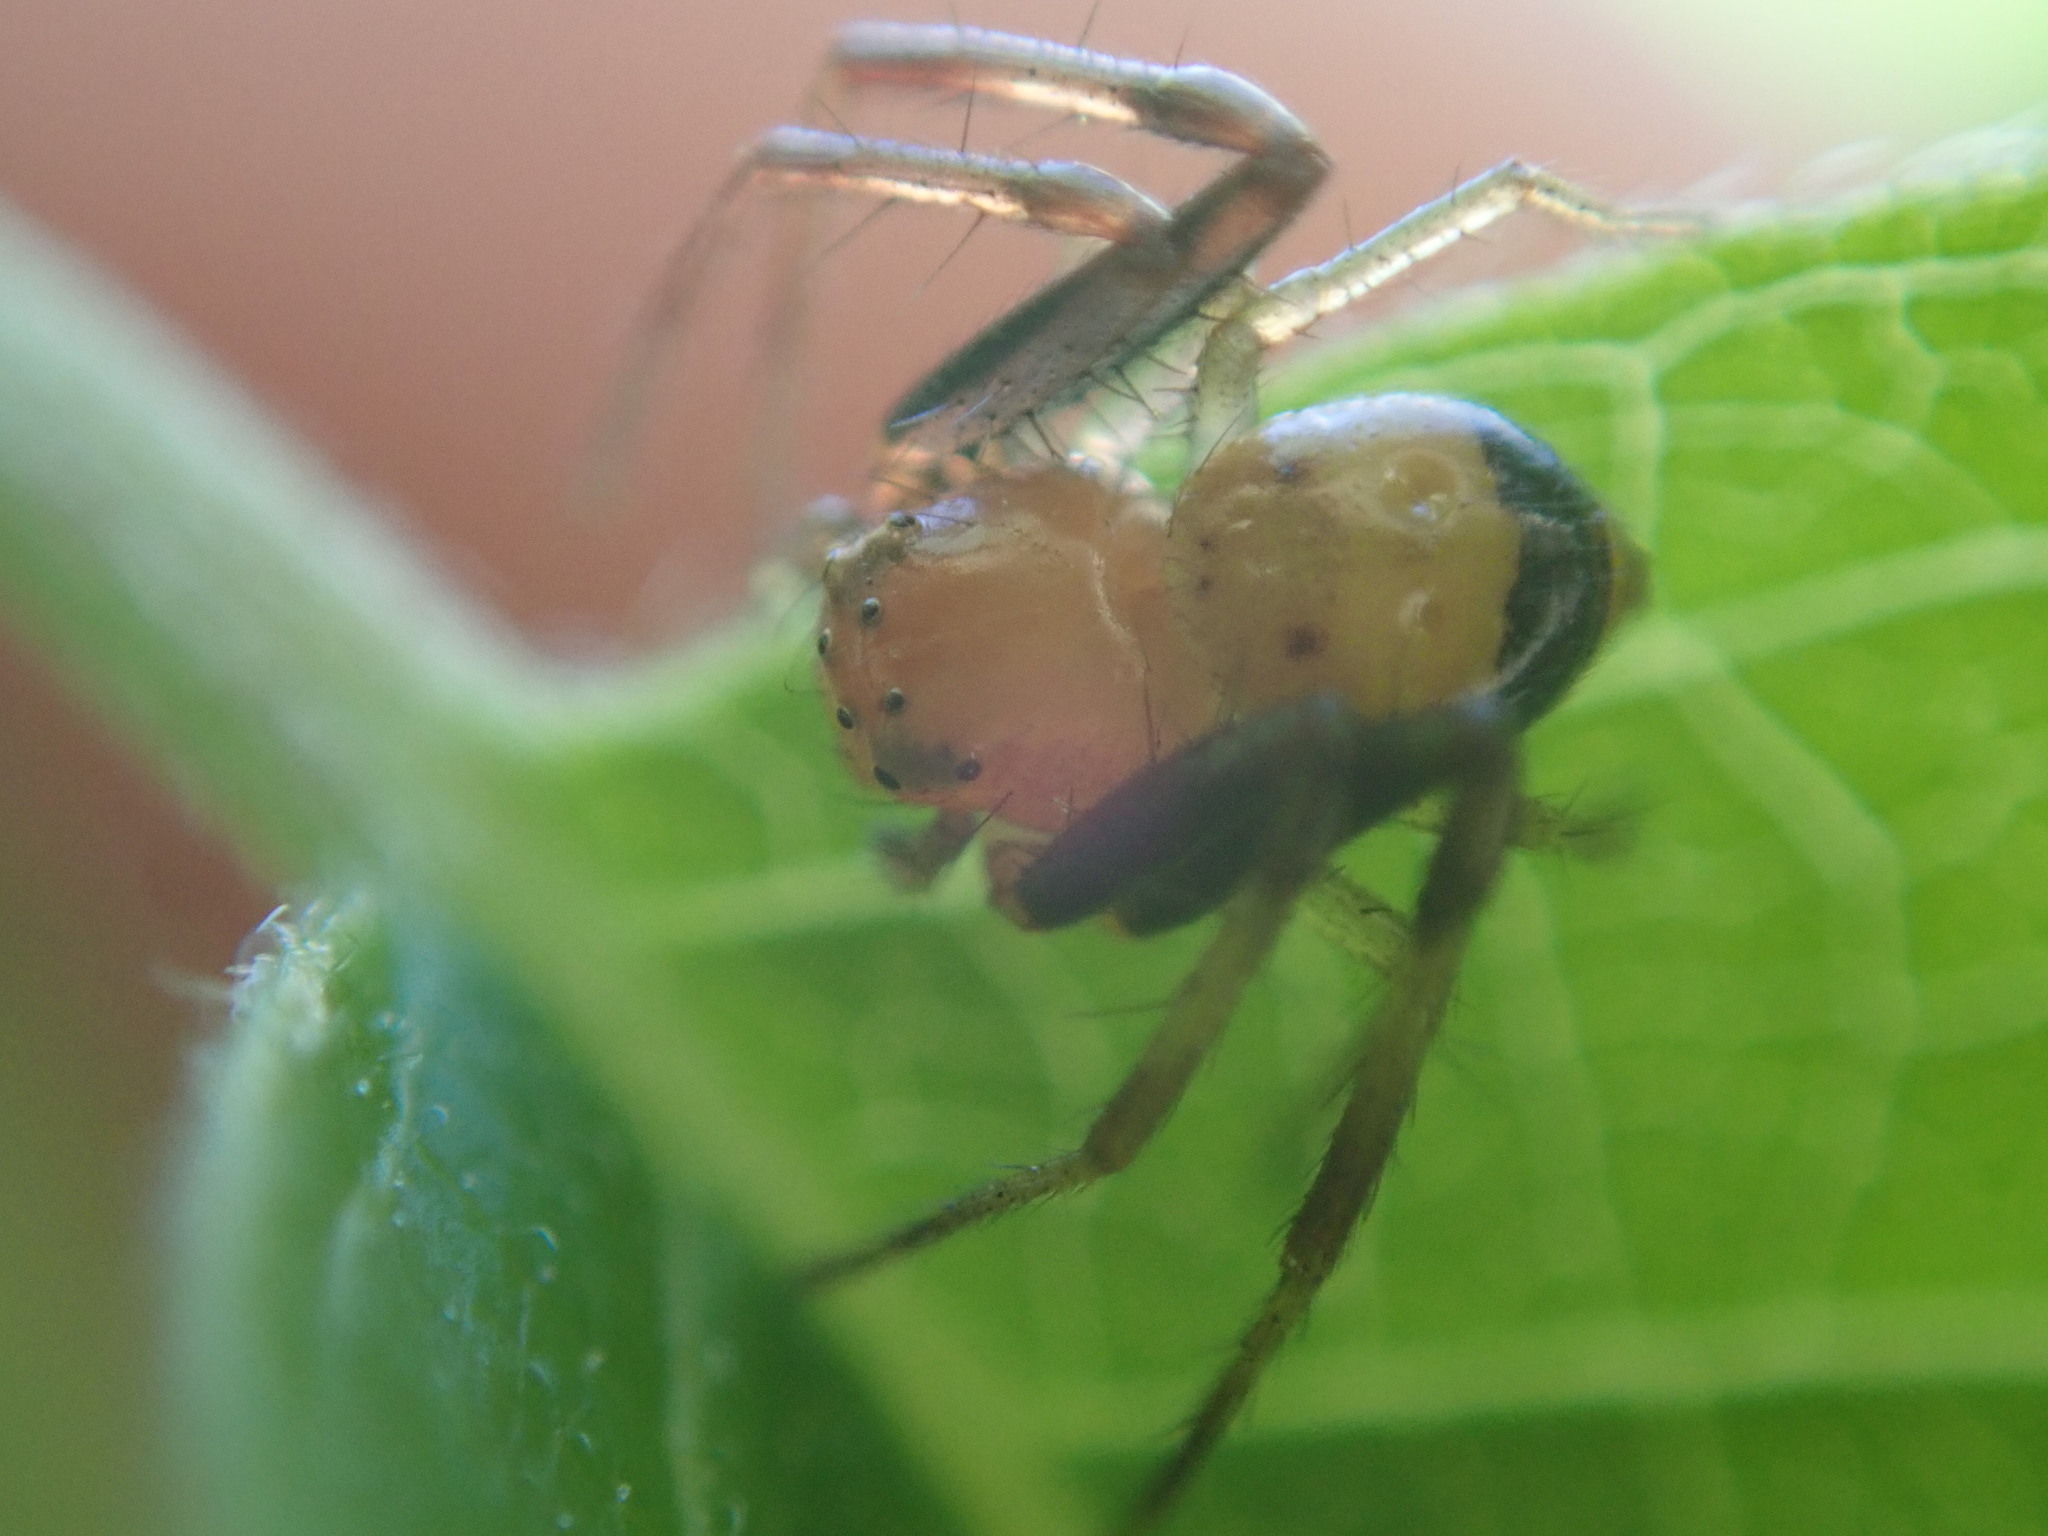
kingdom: Animalia
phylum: Arthropoda
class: Arachnida
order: Araneae
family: Thomisidae
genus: Synema
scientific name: Synema parvulum
